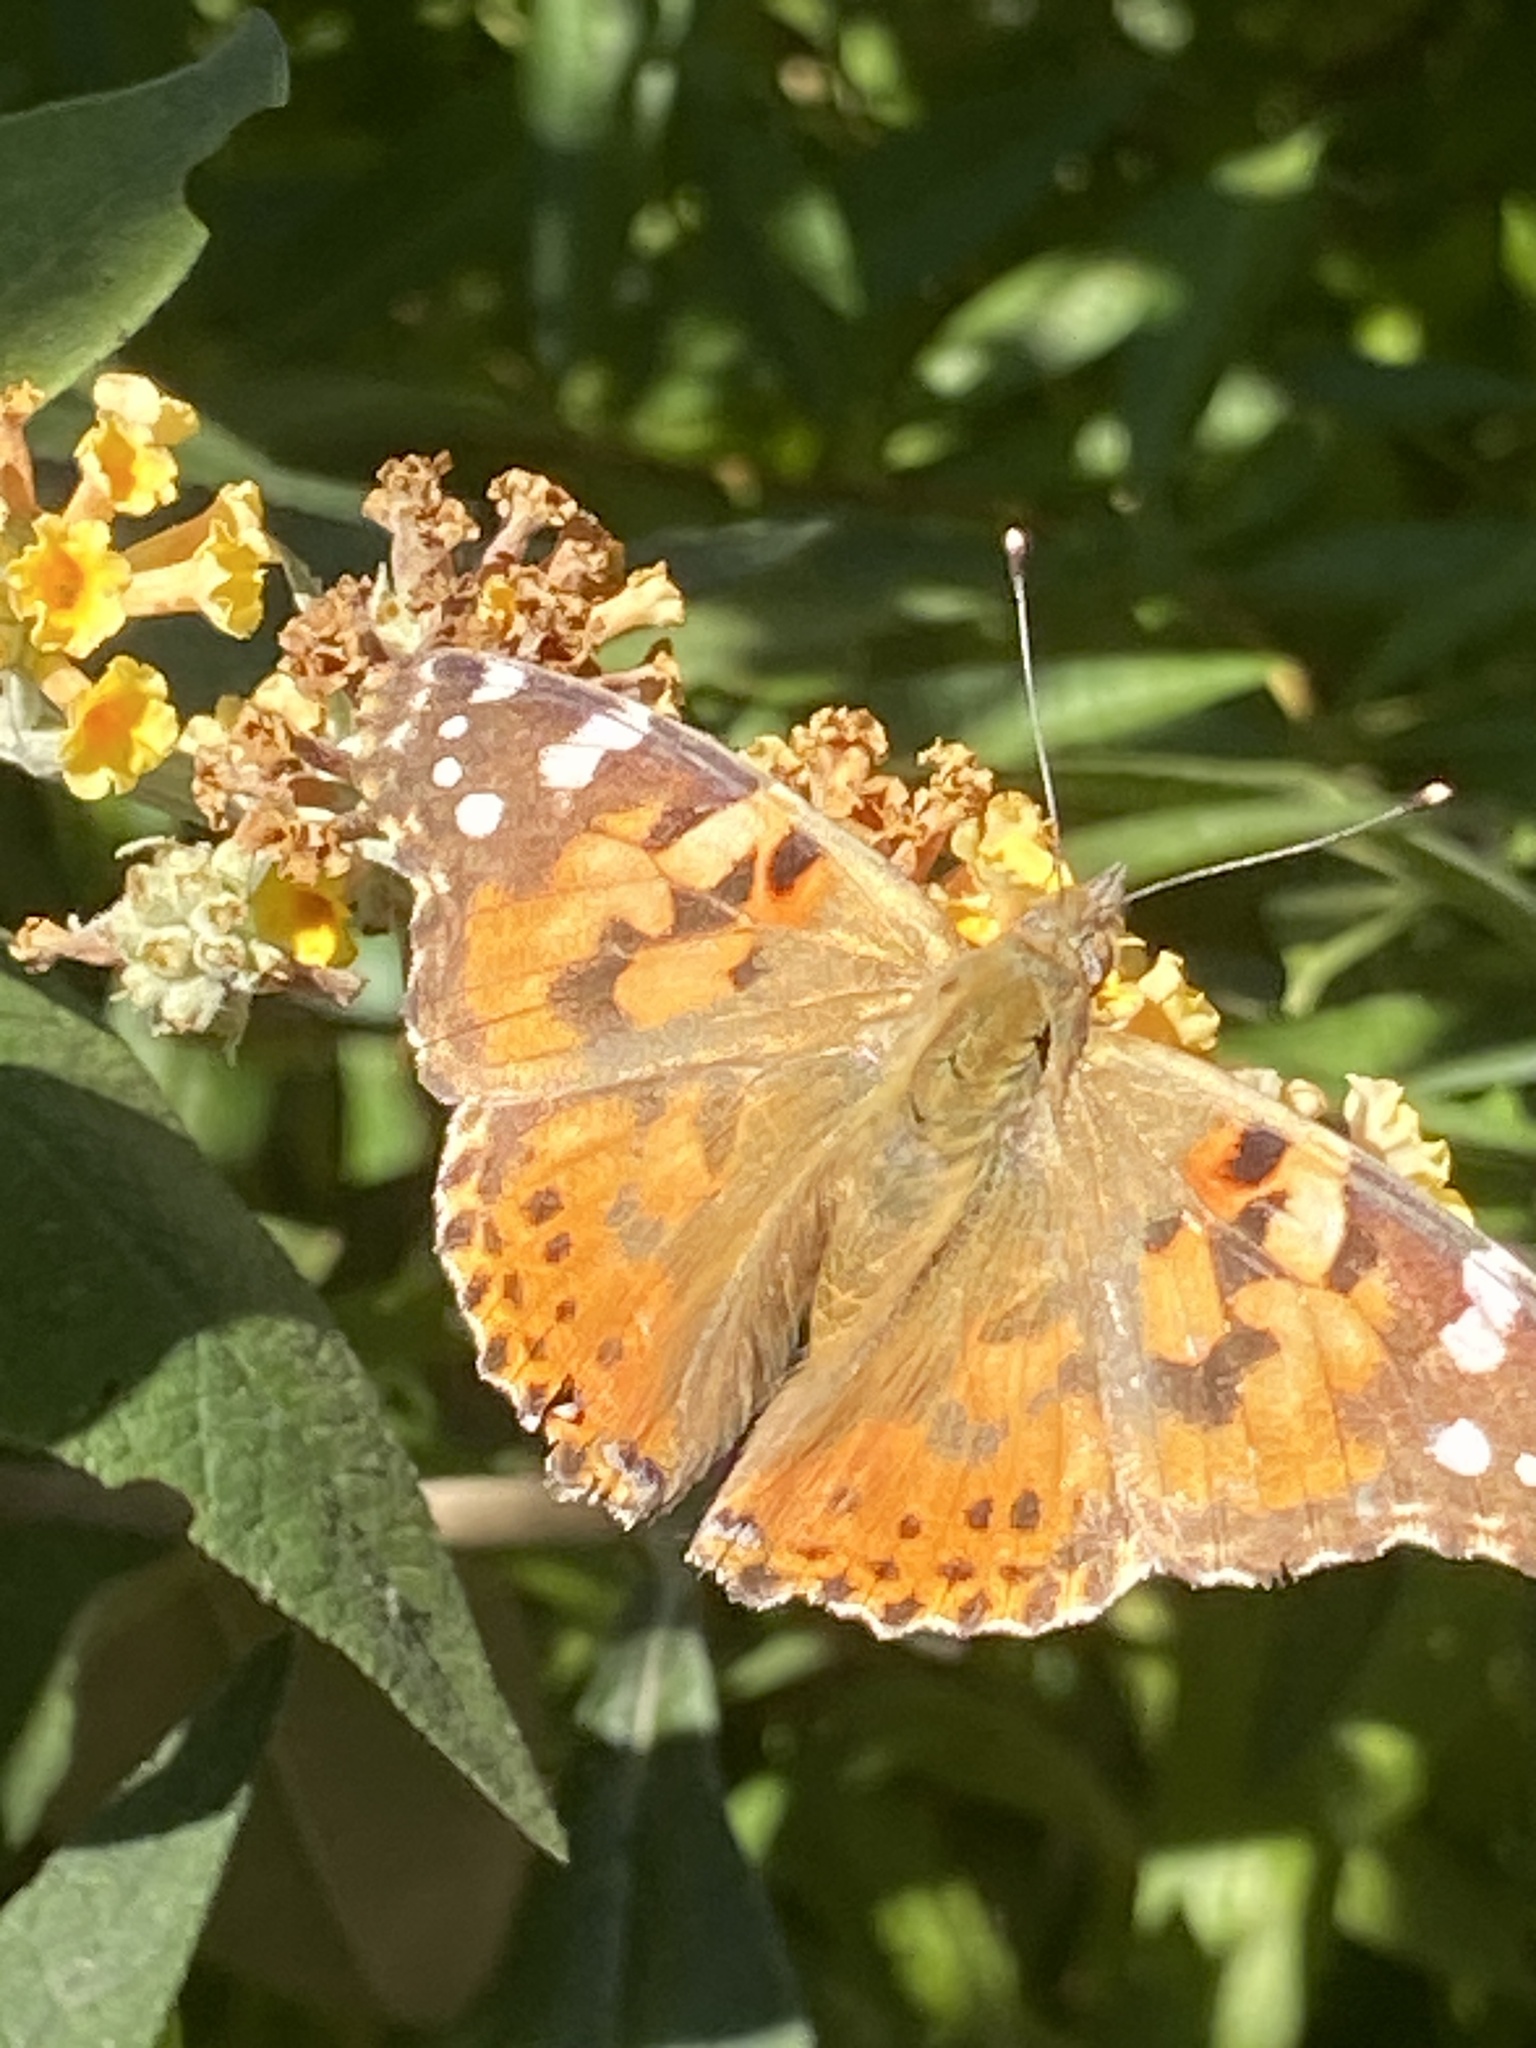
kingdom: Animalia
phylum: Arthropoda
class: Insecta
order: Lepidoptera
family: Nymphalidae
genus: Vanessa
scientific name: Vanessa cardui
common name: Painted lady
